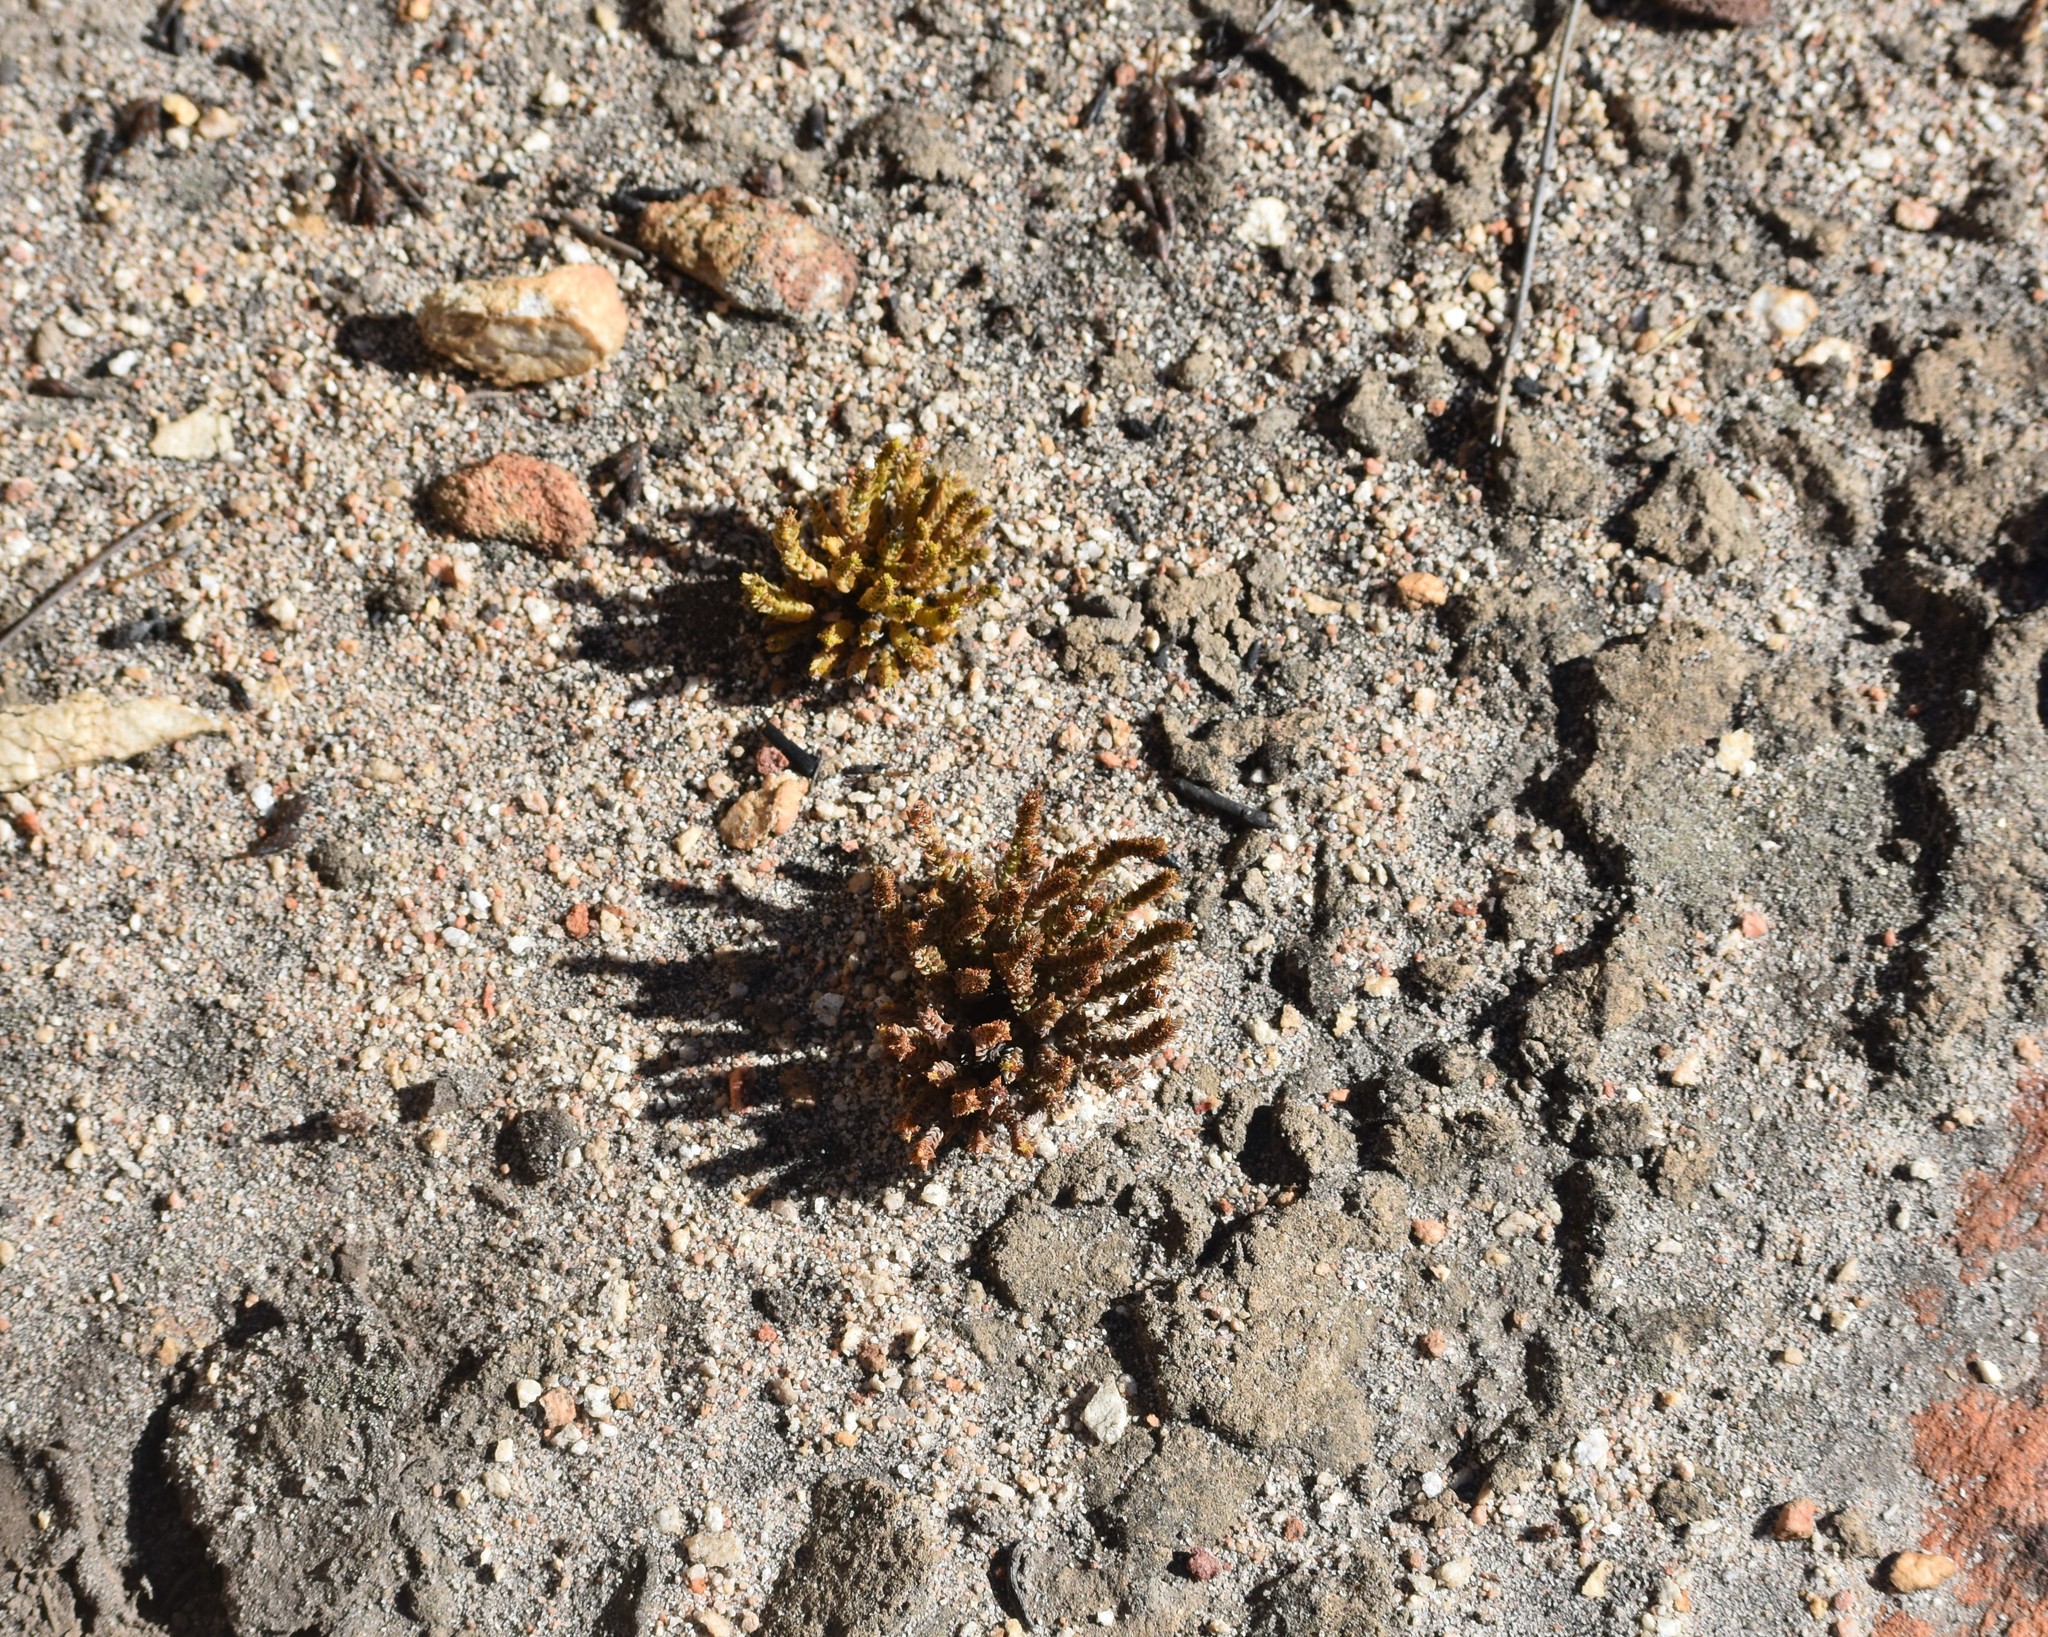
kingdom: Plantae
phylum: Tracheophyta
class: Magnoliopsida
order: Saxifragales
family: Crassulaceae
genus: Crassula
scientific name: Crassula muscosa
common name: Toy-cypress
